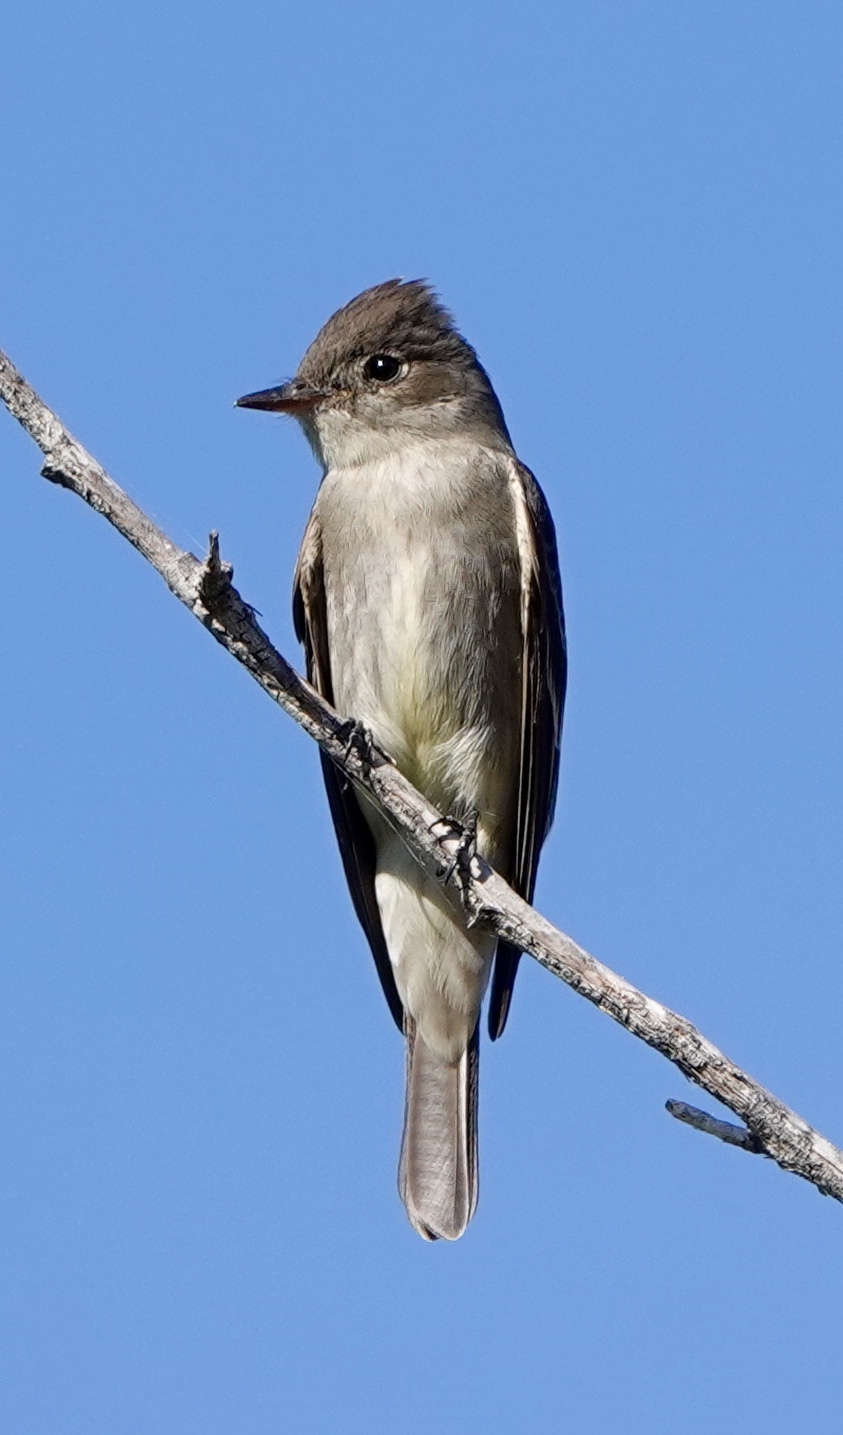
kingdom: Animalia
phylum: Chordata
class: Aves
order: Passeriformes
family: Tyrannidae
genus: Contopus
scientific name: Contopus sordidulus
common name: Western wood-pewee
